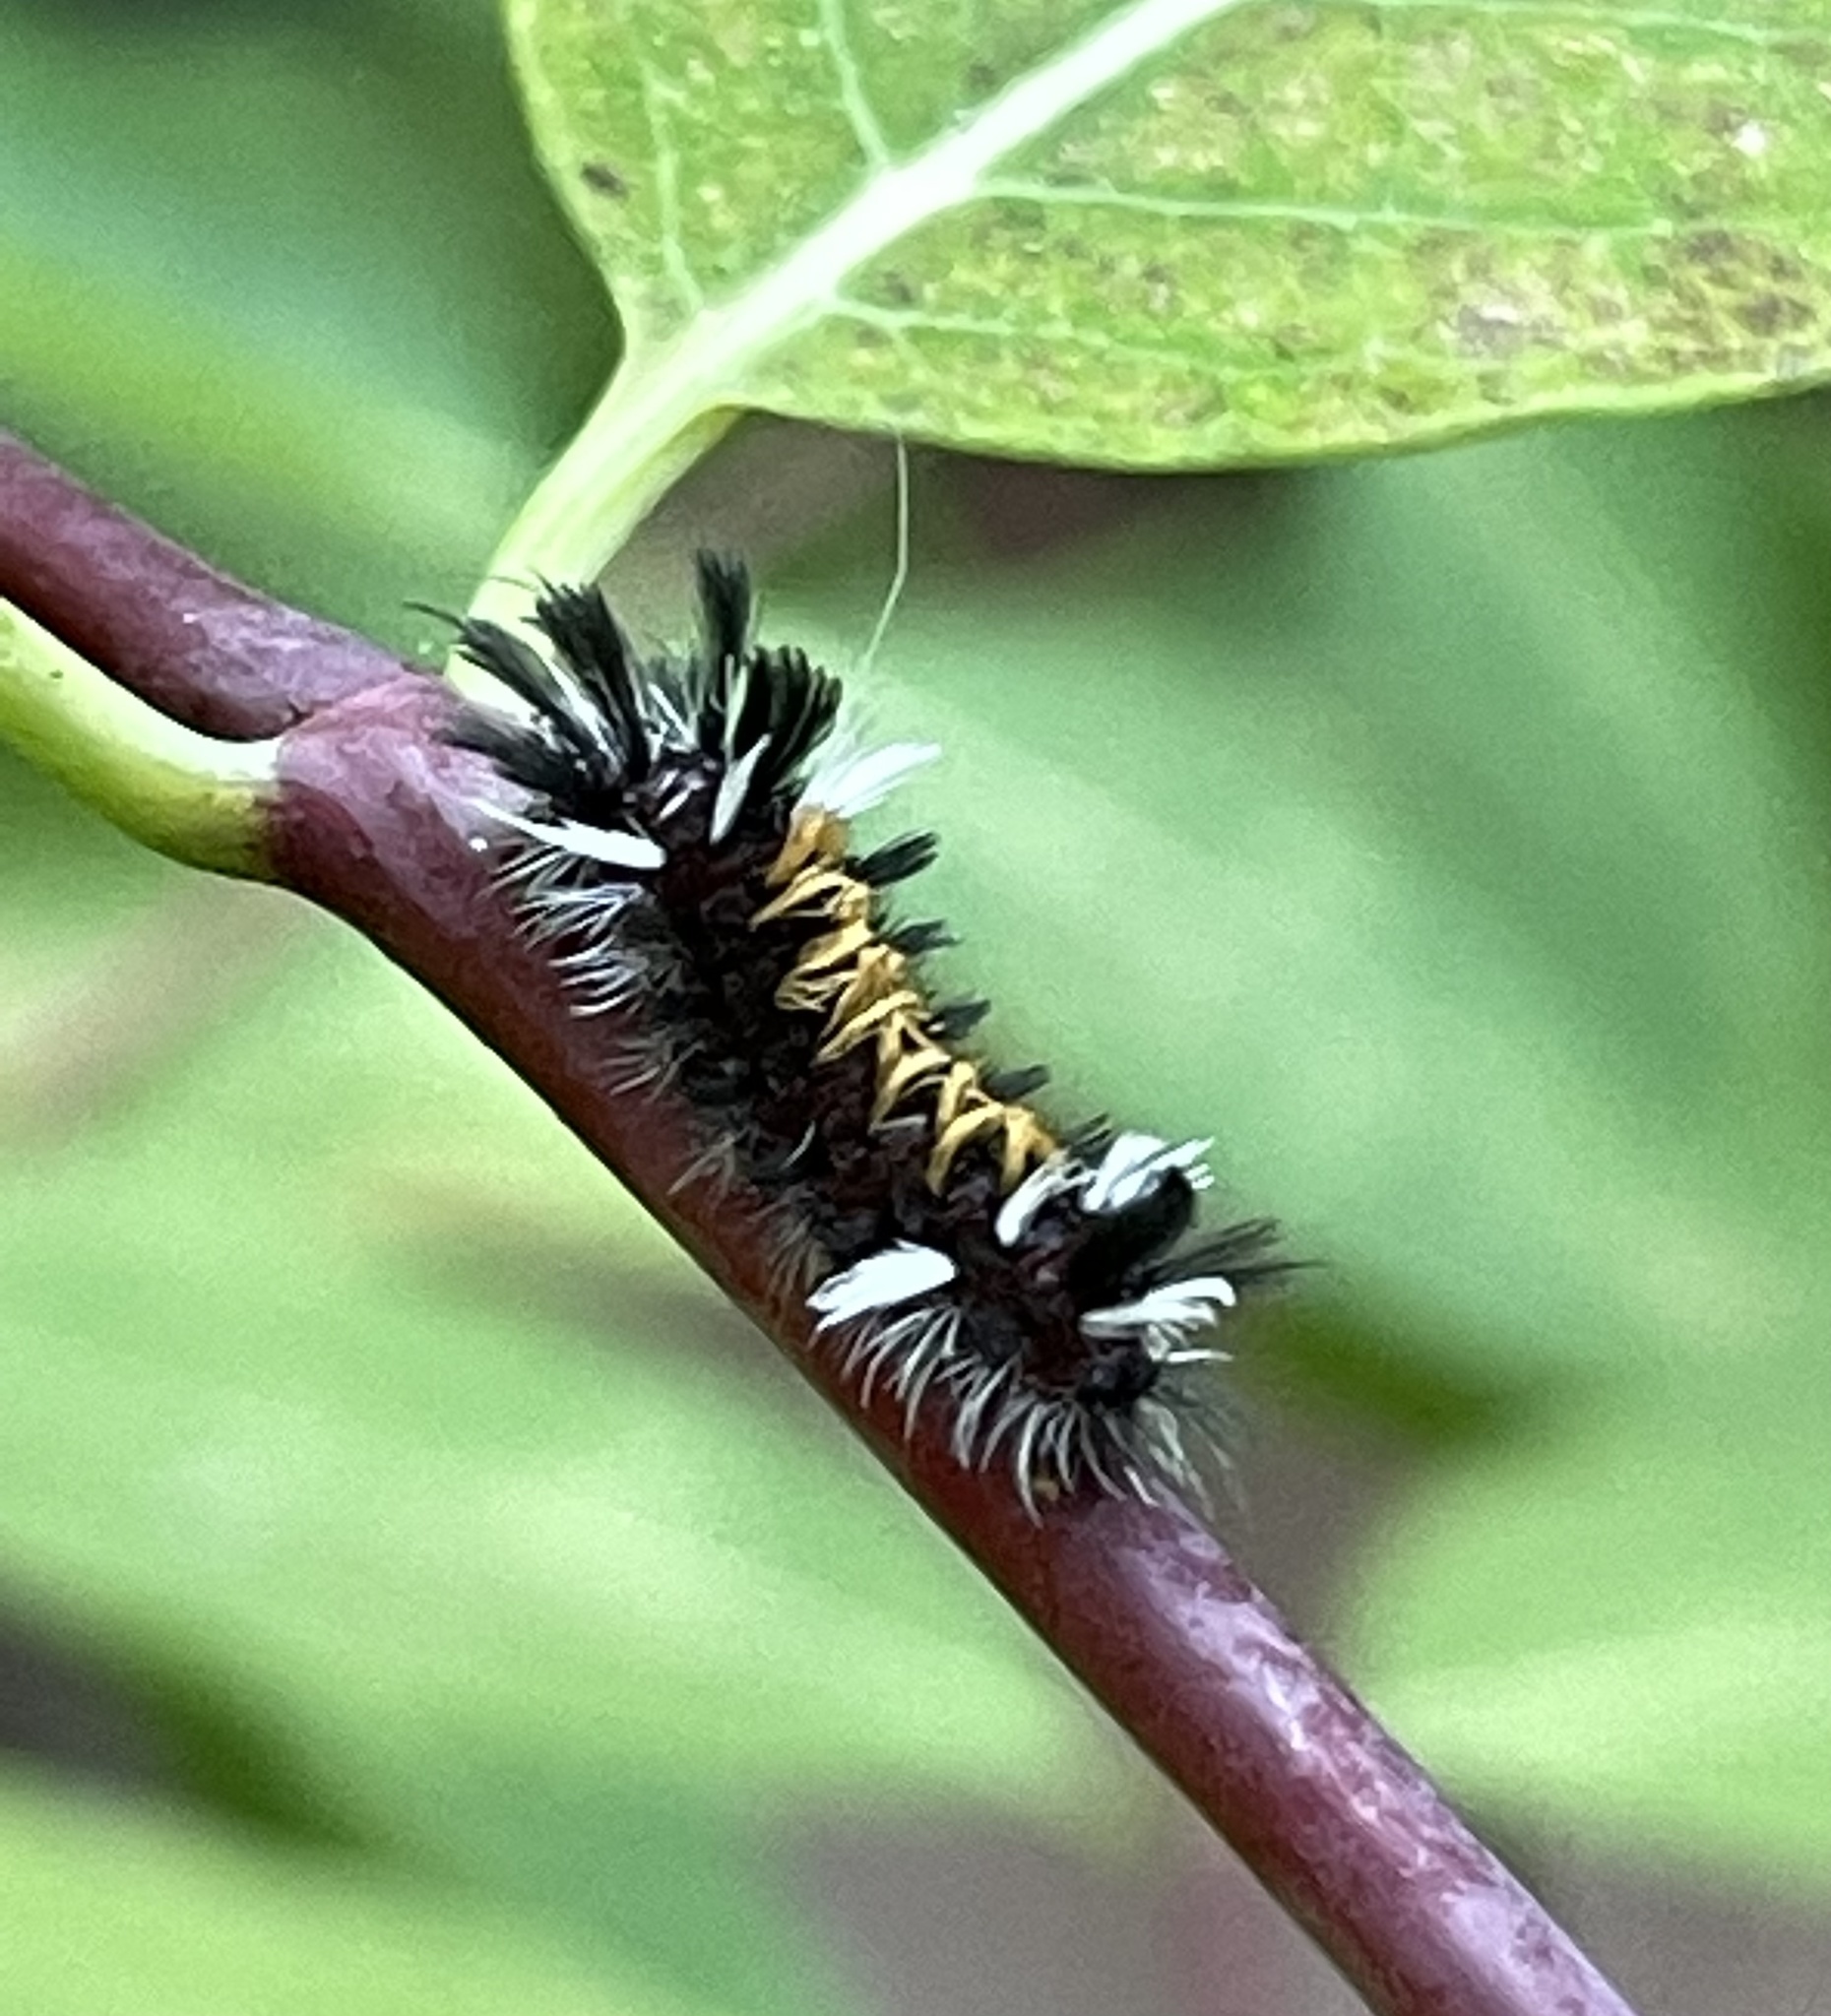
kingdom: Animalia
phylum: Arthropoda
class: Insecta
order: Lepidoptera
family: Erebidae
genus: Euchaetes
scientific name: Euchaetes egle
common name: Milkweed tussock moth
